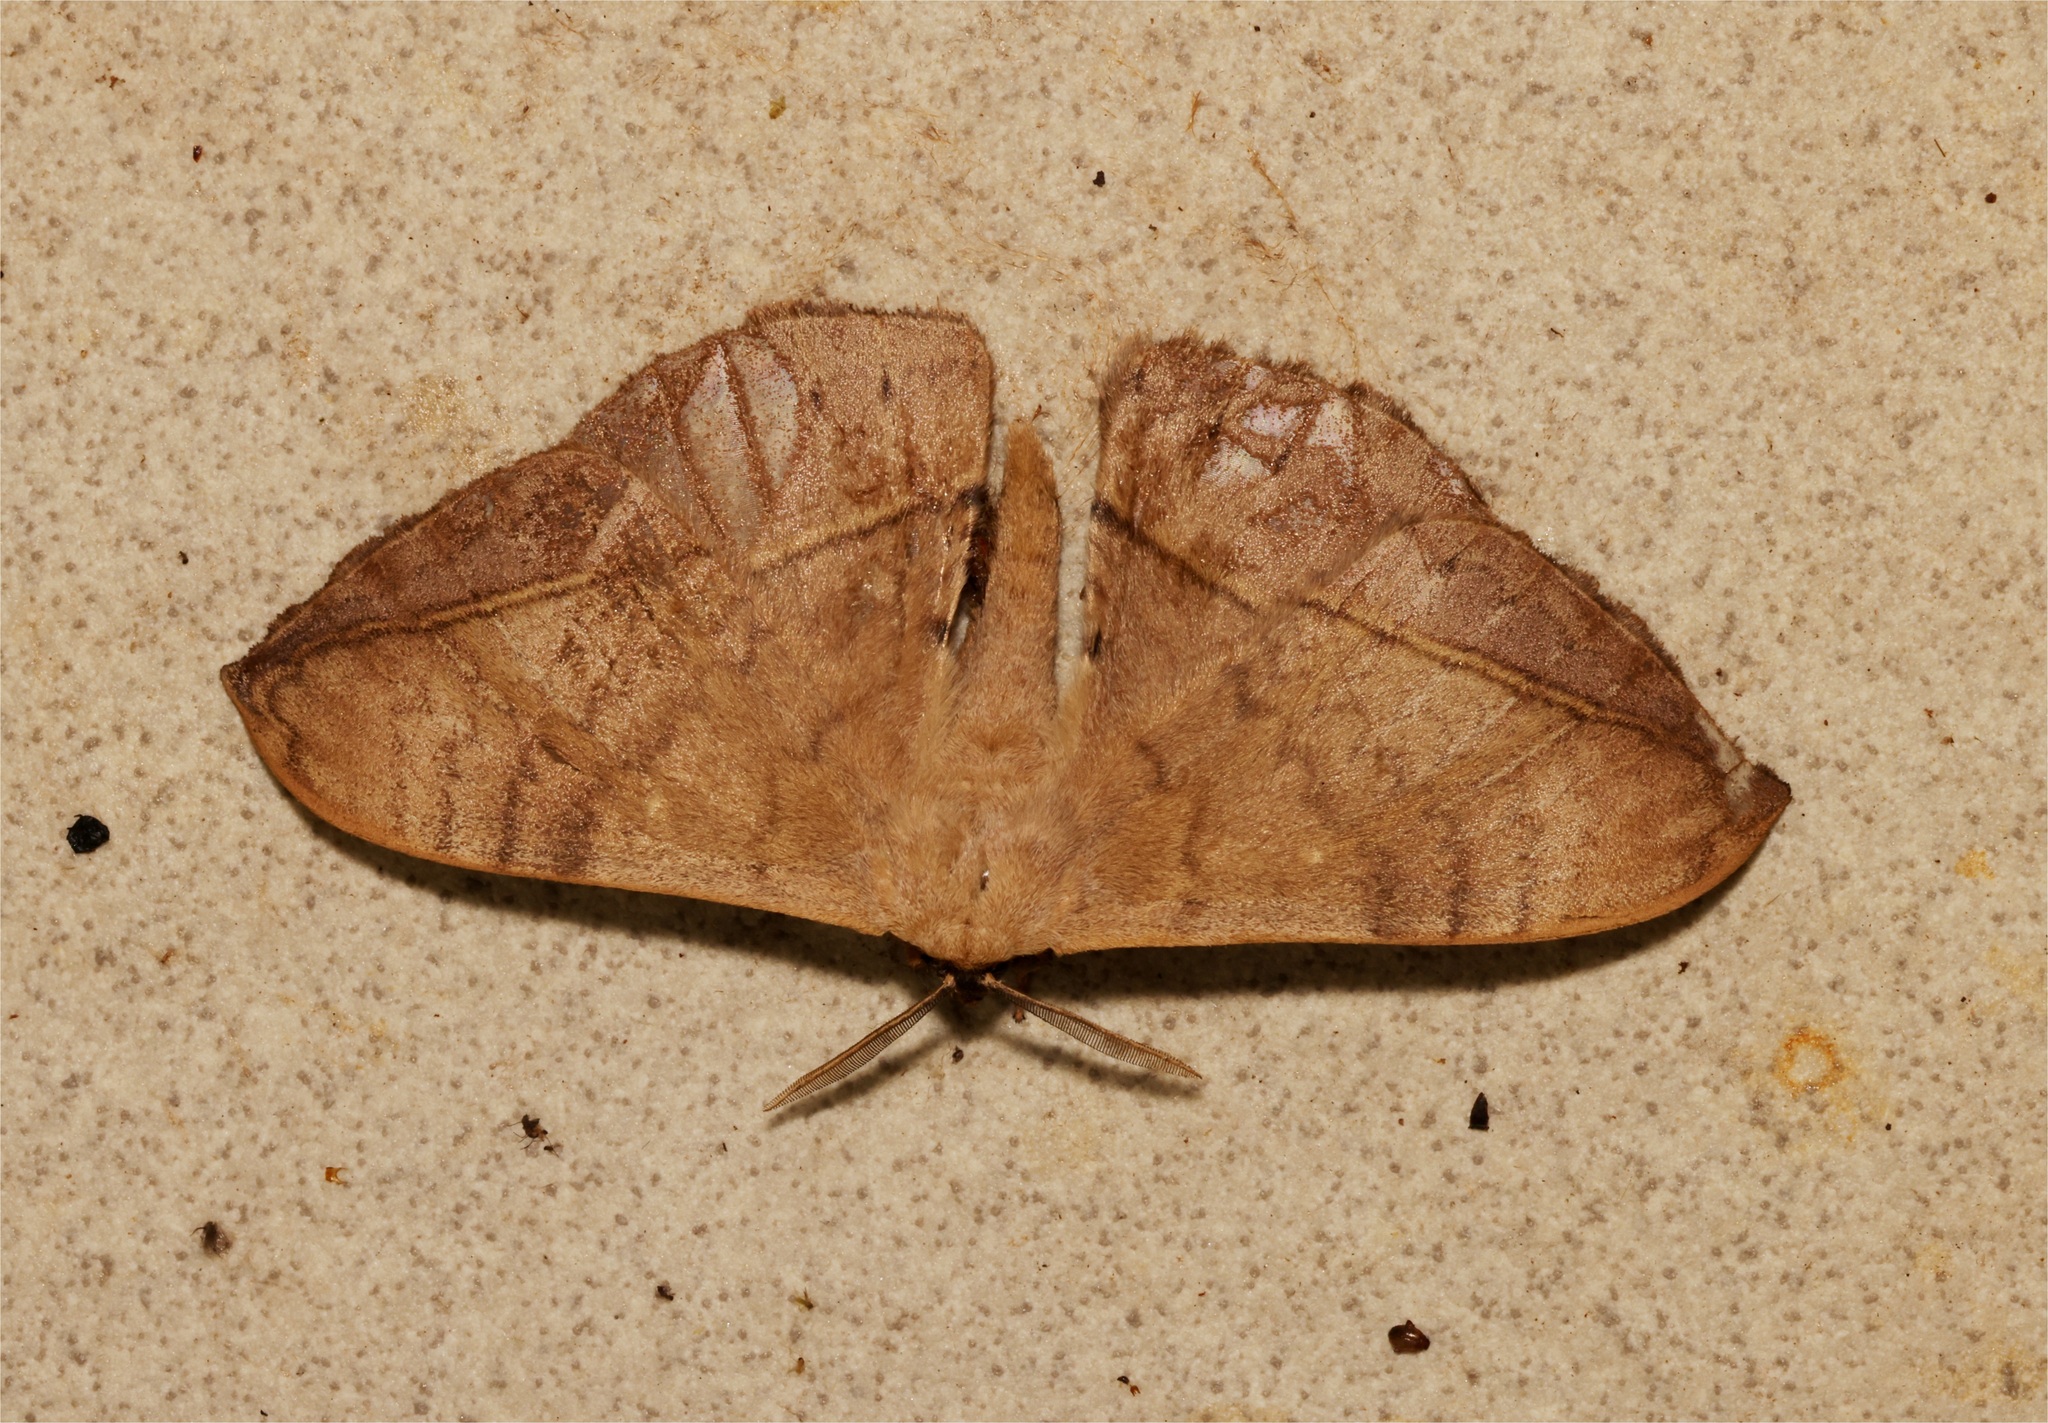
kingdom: Animalia
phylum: Arthropoda
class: Insecta
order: Lepidoptera
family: Eupterotidae
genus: Tagora
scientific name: Tagora
